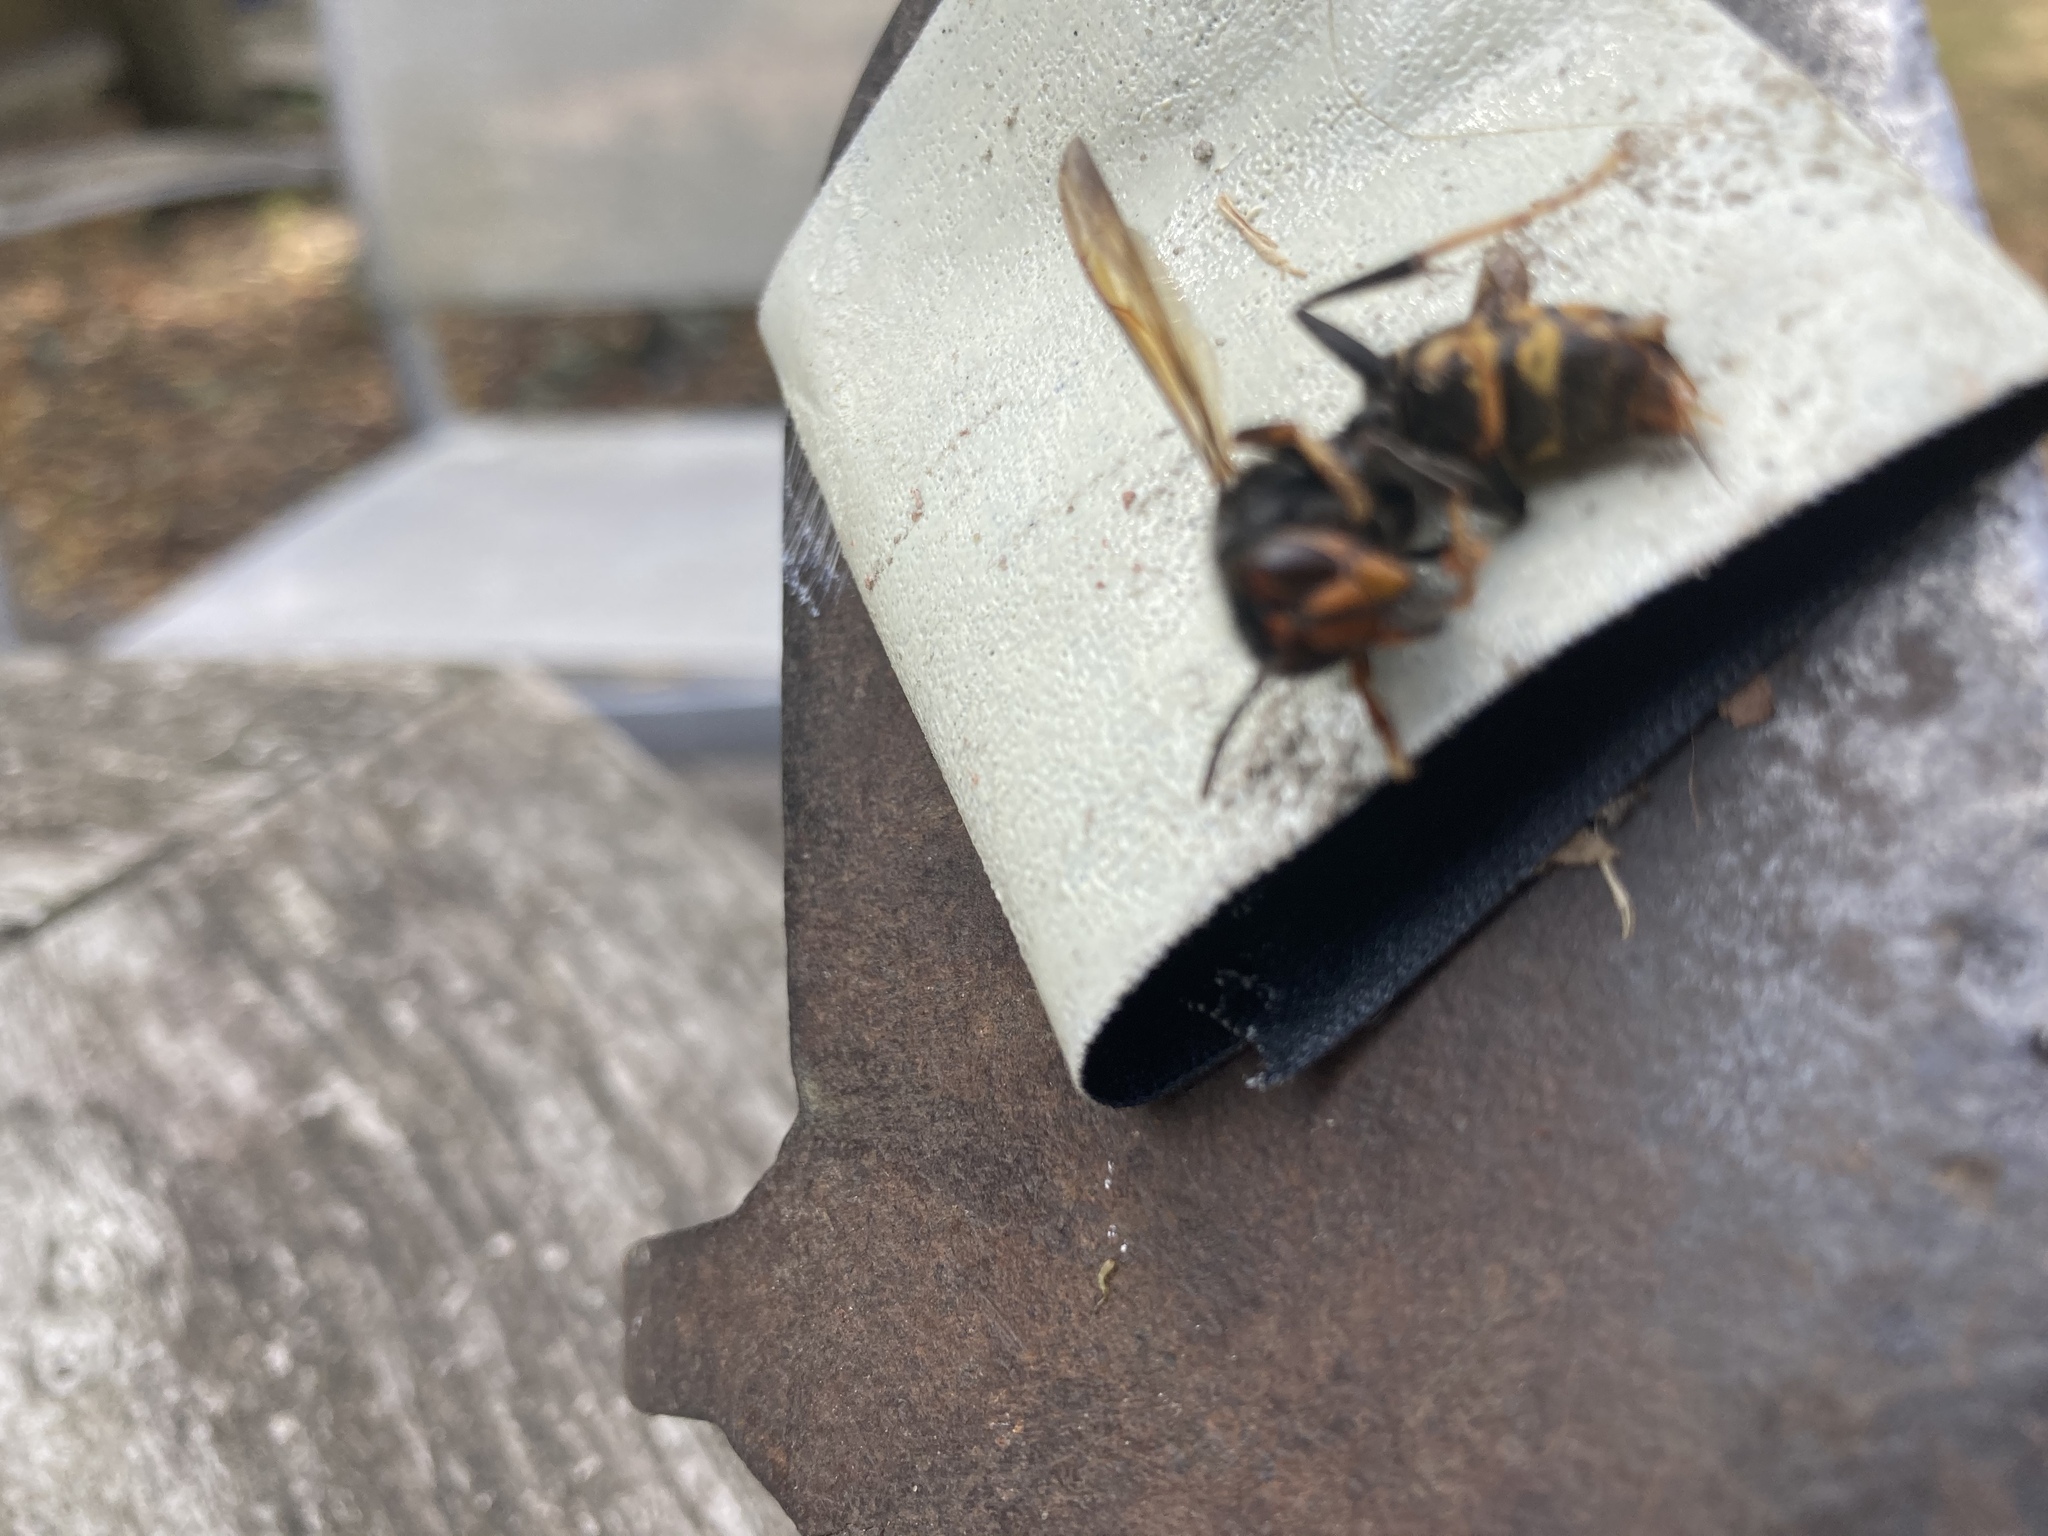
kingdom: Animalia
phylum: Arthropoda
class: Insecta
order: Hymenoptera
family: Vespidae
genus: Vespa
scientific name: Vespa velutina
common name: Asian hornet
